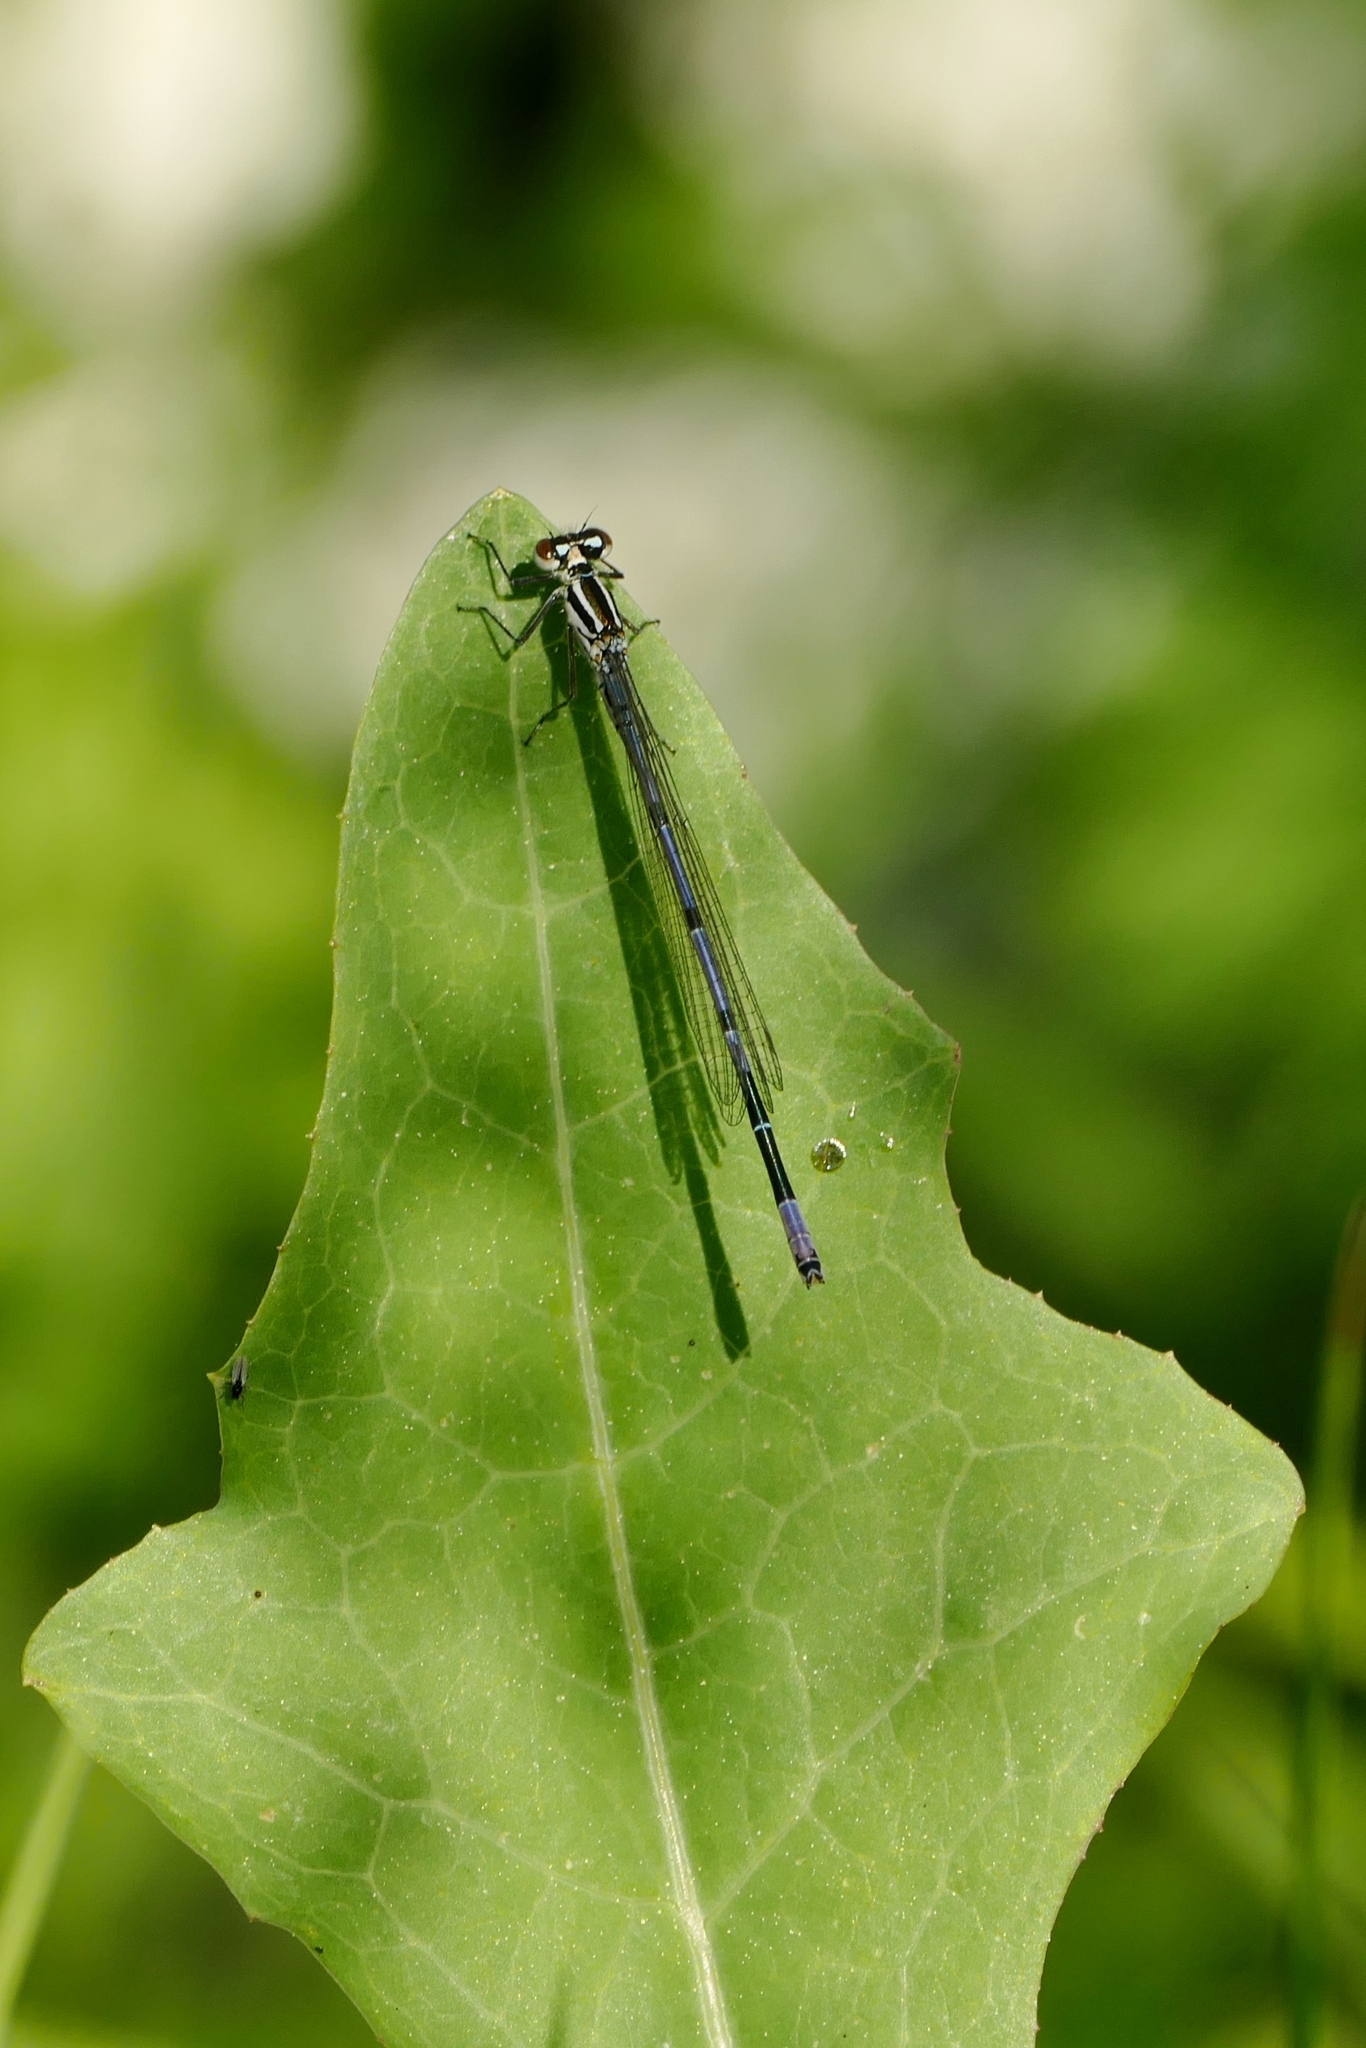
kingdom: Animalia
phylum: Arthropoda
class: Insecta
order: Odonata
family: Coenagrionidae
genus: Coenagrion
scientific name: Coenagrion puella
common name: Azure damselfly
